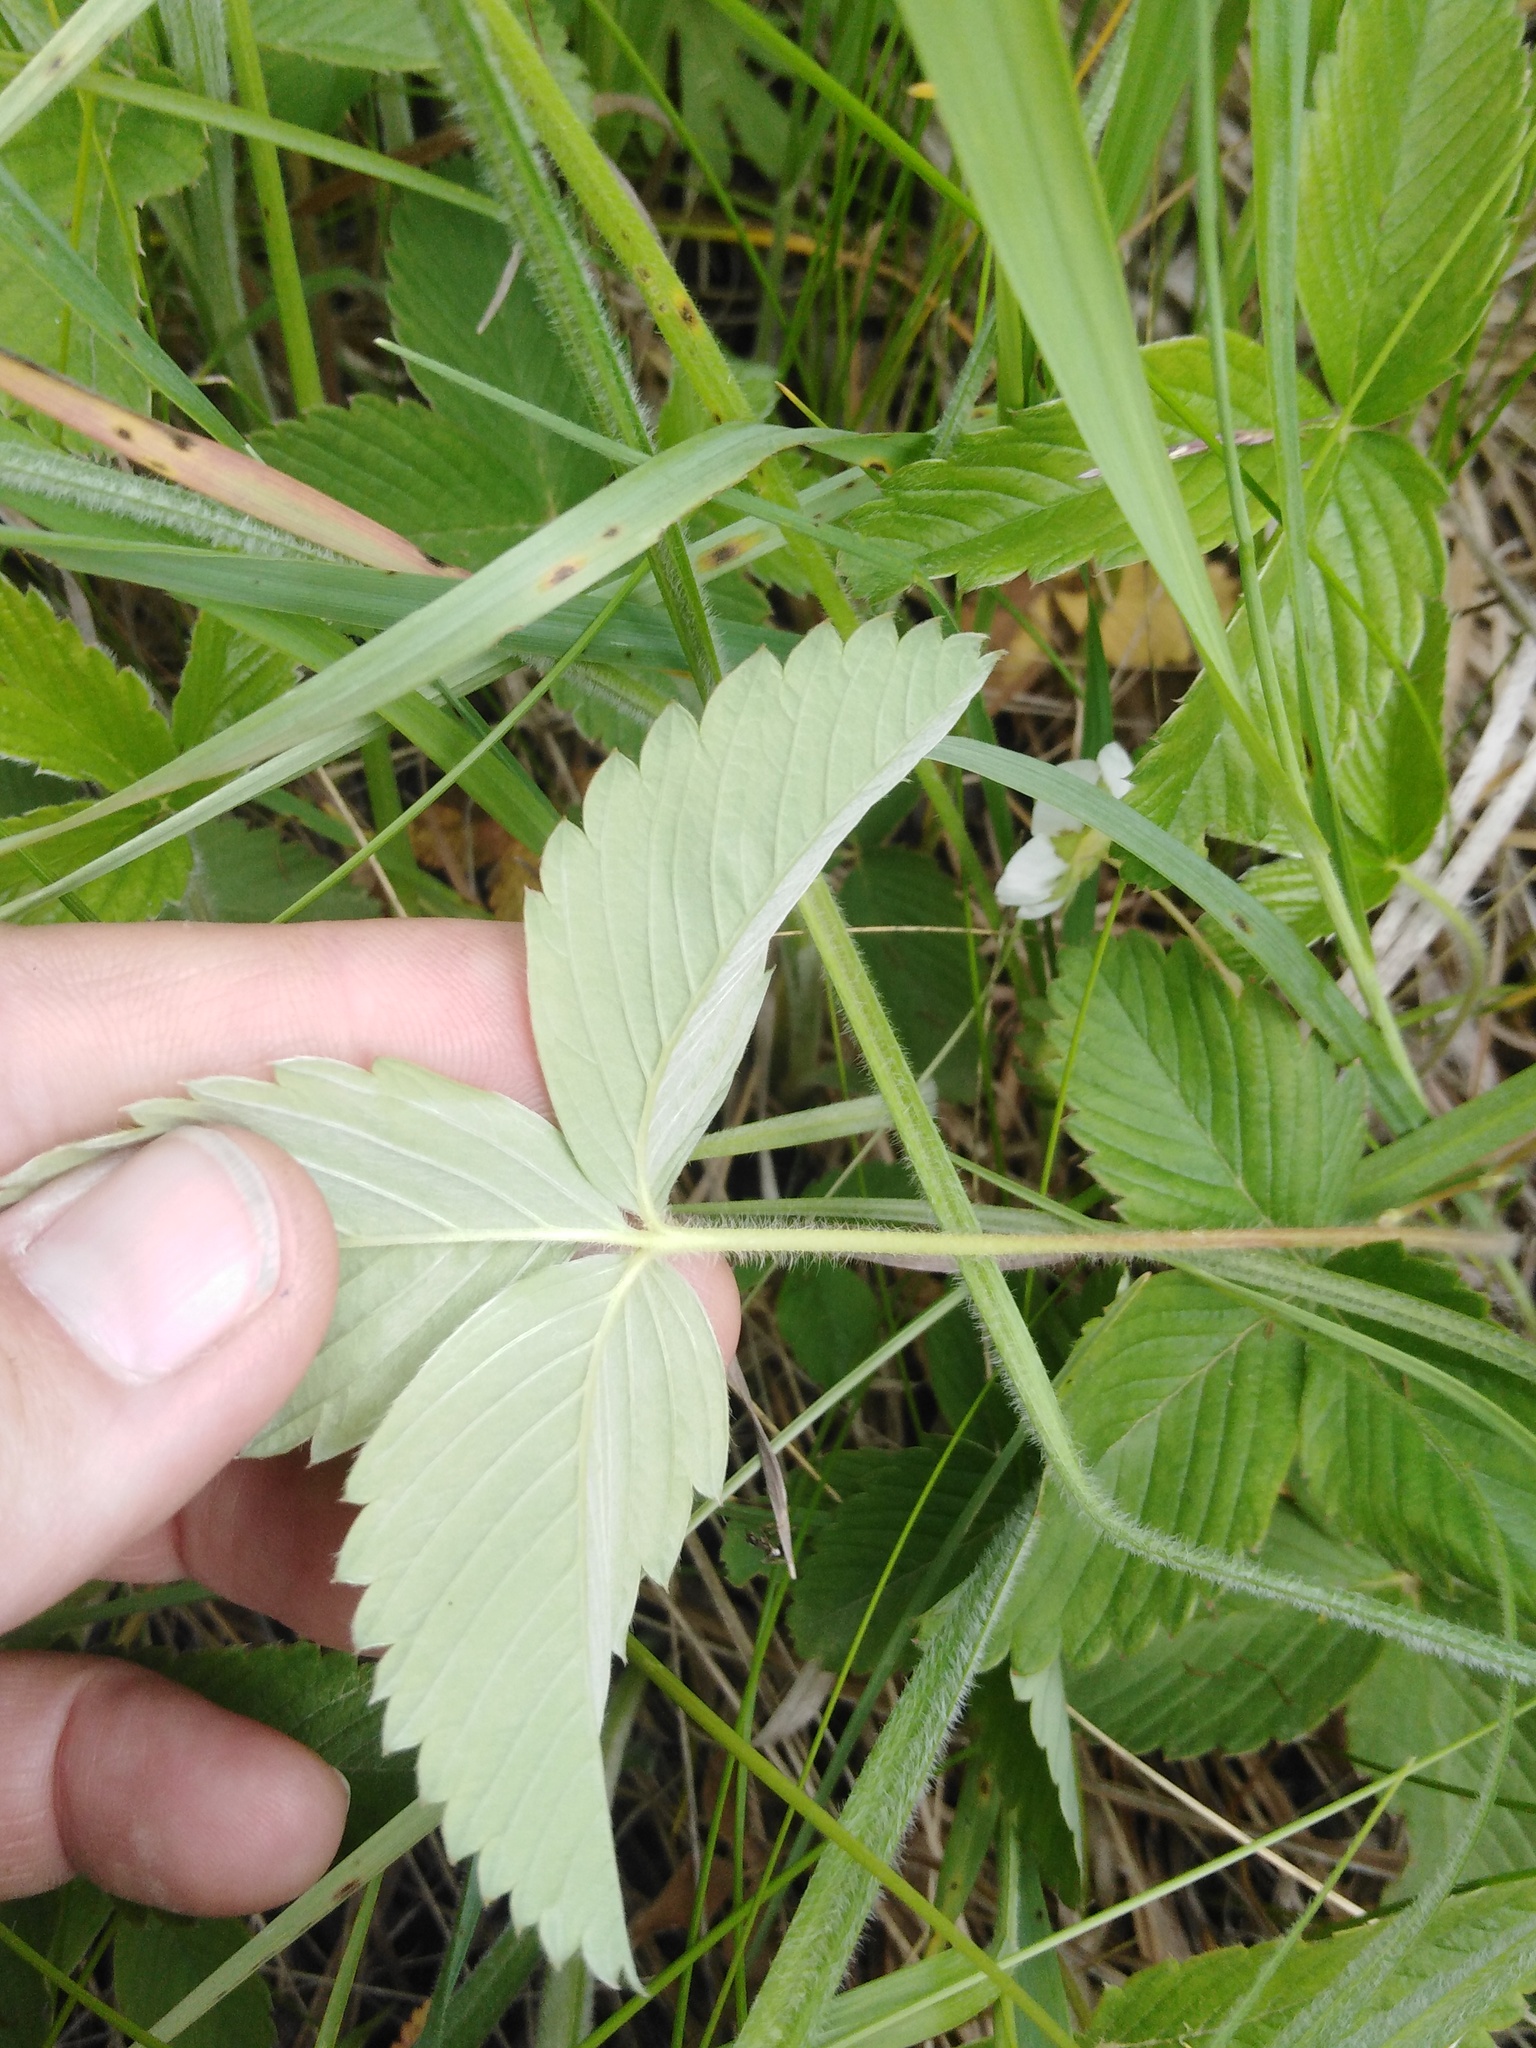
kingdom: Plantae
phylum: Tracheophyta
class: Magnoliopsida
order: Rosales
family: Rosaceae
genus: Fragaria
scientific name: Fragaria viridis
